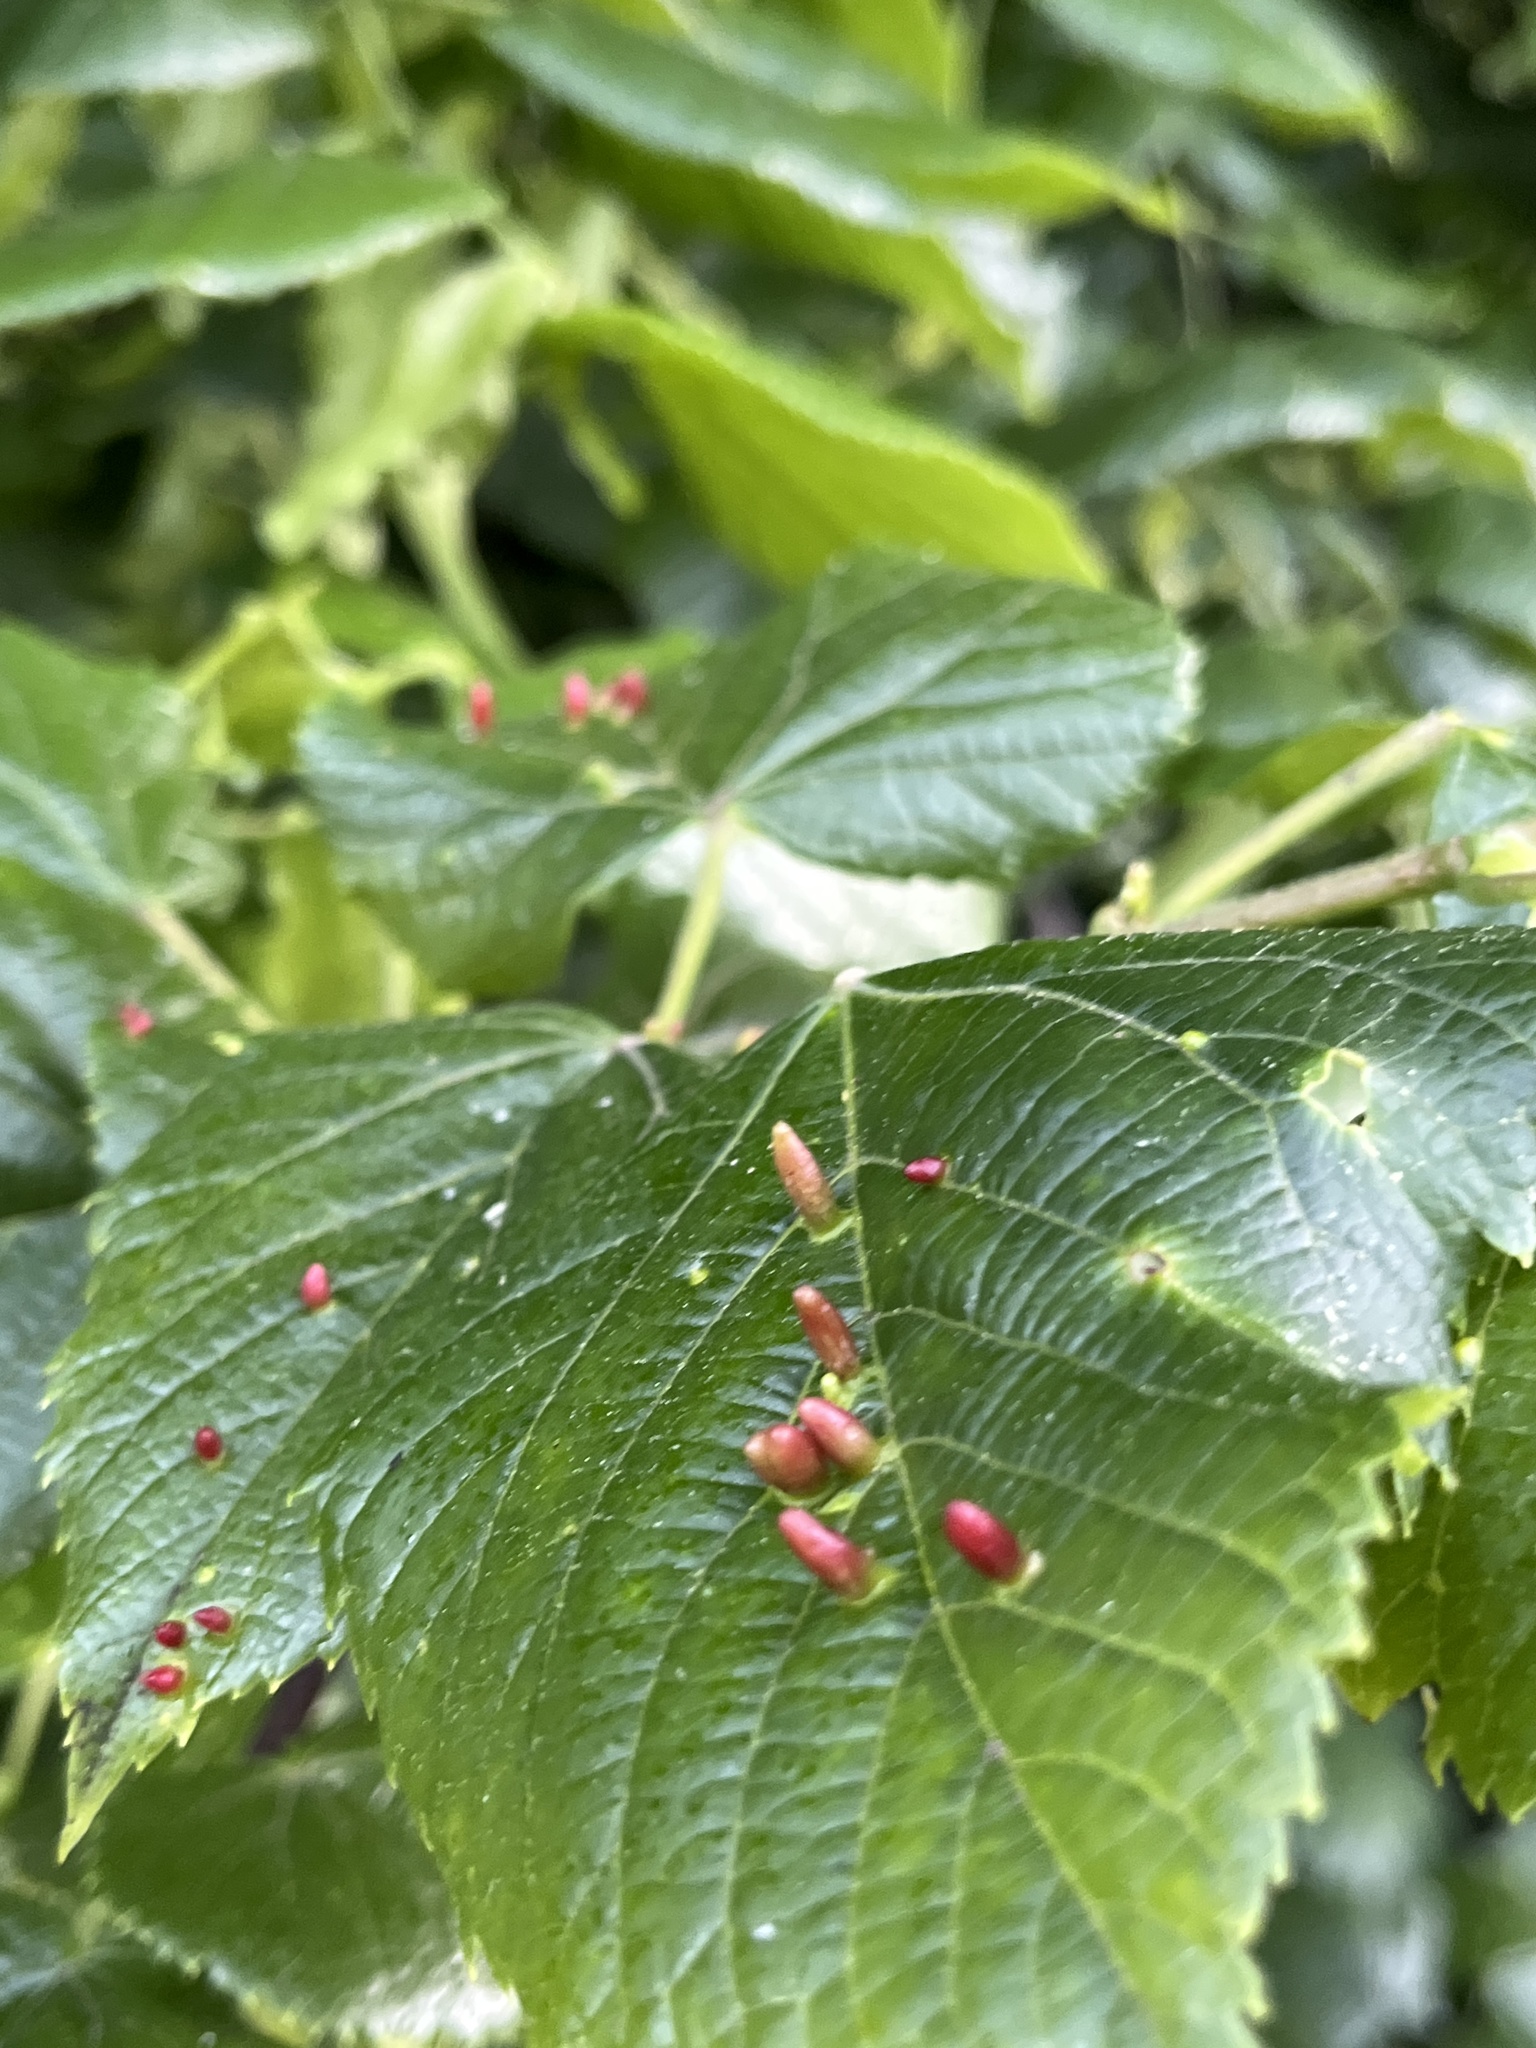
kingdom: Animalia
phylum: Arthropoda
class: Arachnida
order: Trombidiformes
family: Eriophyidae
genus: Eriophyes
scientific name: Eriophyes tiliae
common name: Red nail gall mite
